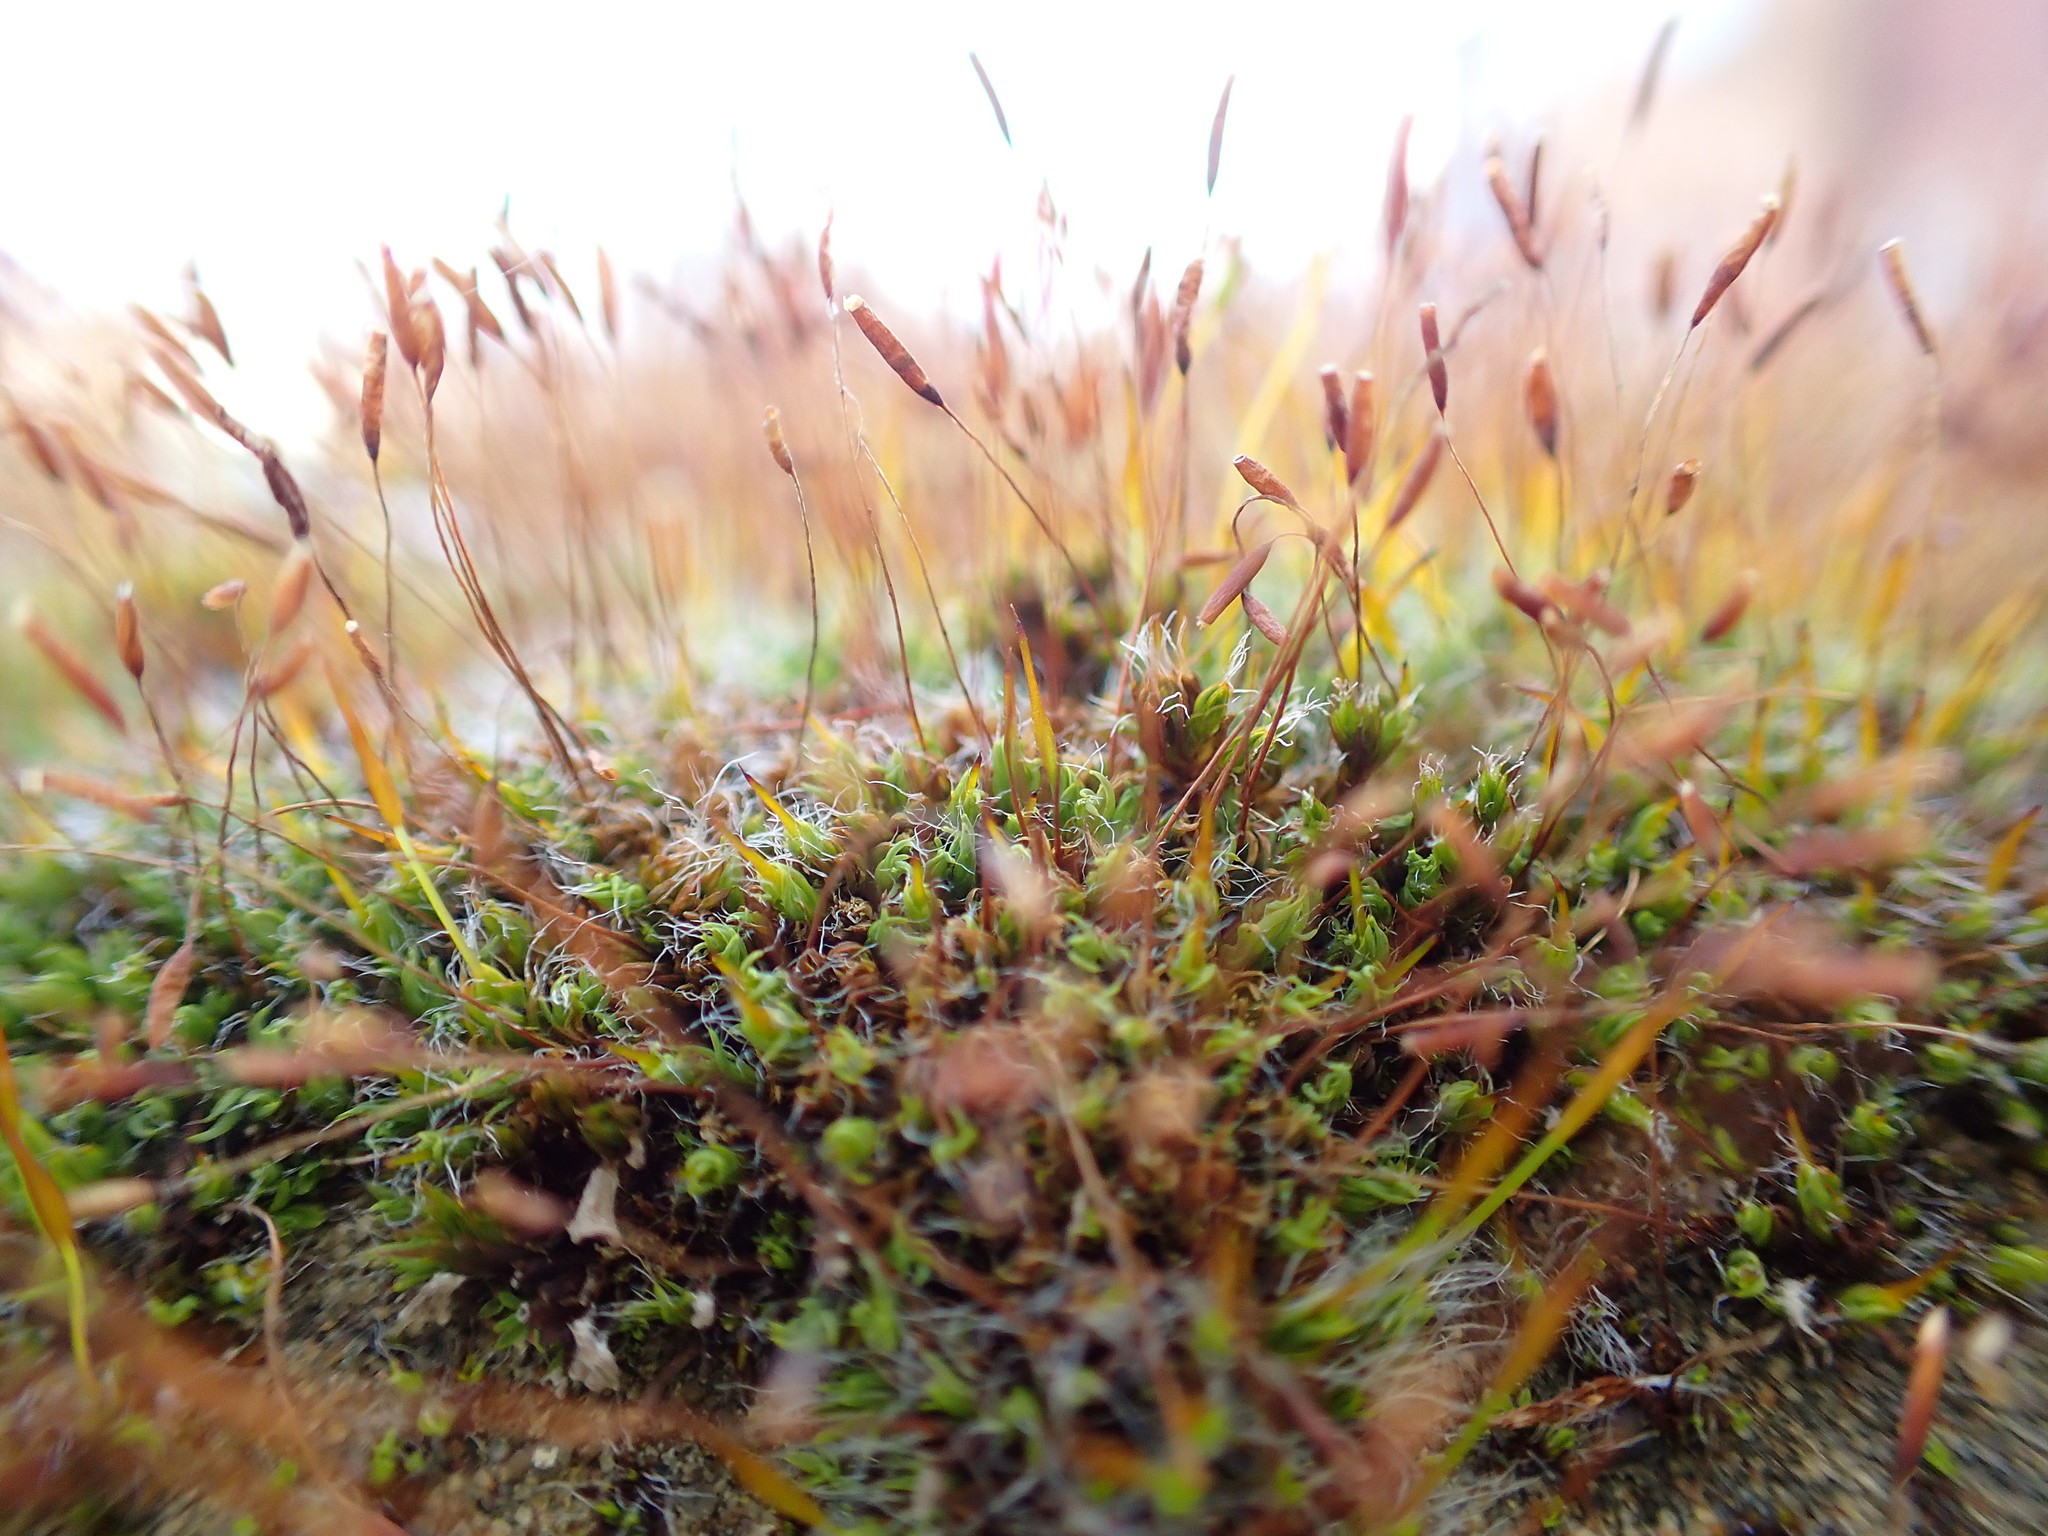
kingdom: Plantae
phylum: Bryophyta
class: Bryopsida
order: Pottiales
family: Pottiaceae
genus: Tortula
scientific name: Tortula muralis
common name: Wall screw-moss
